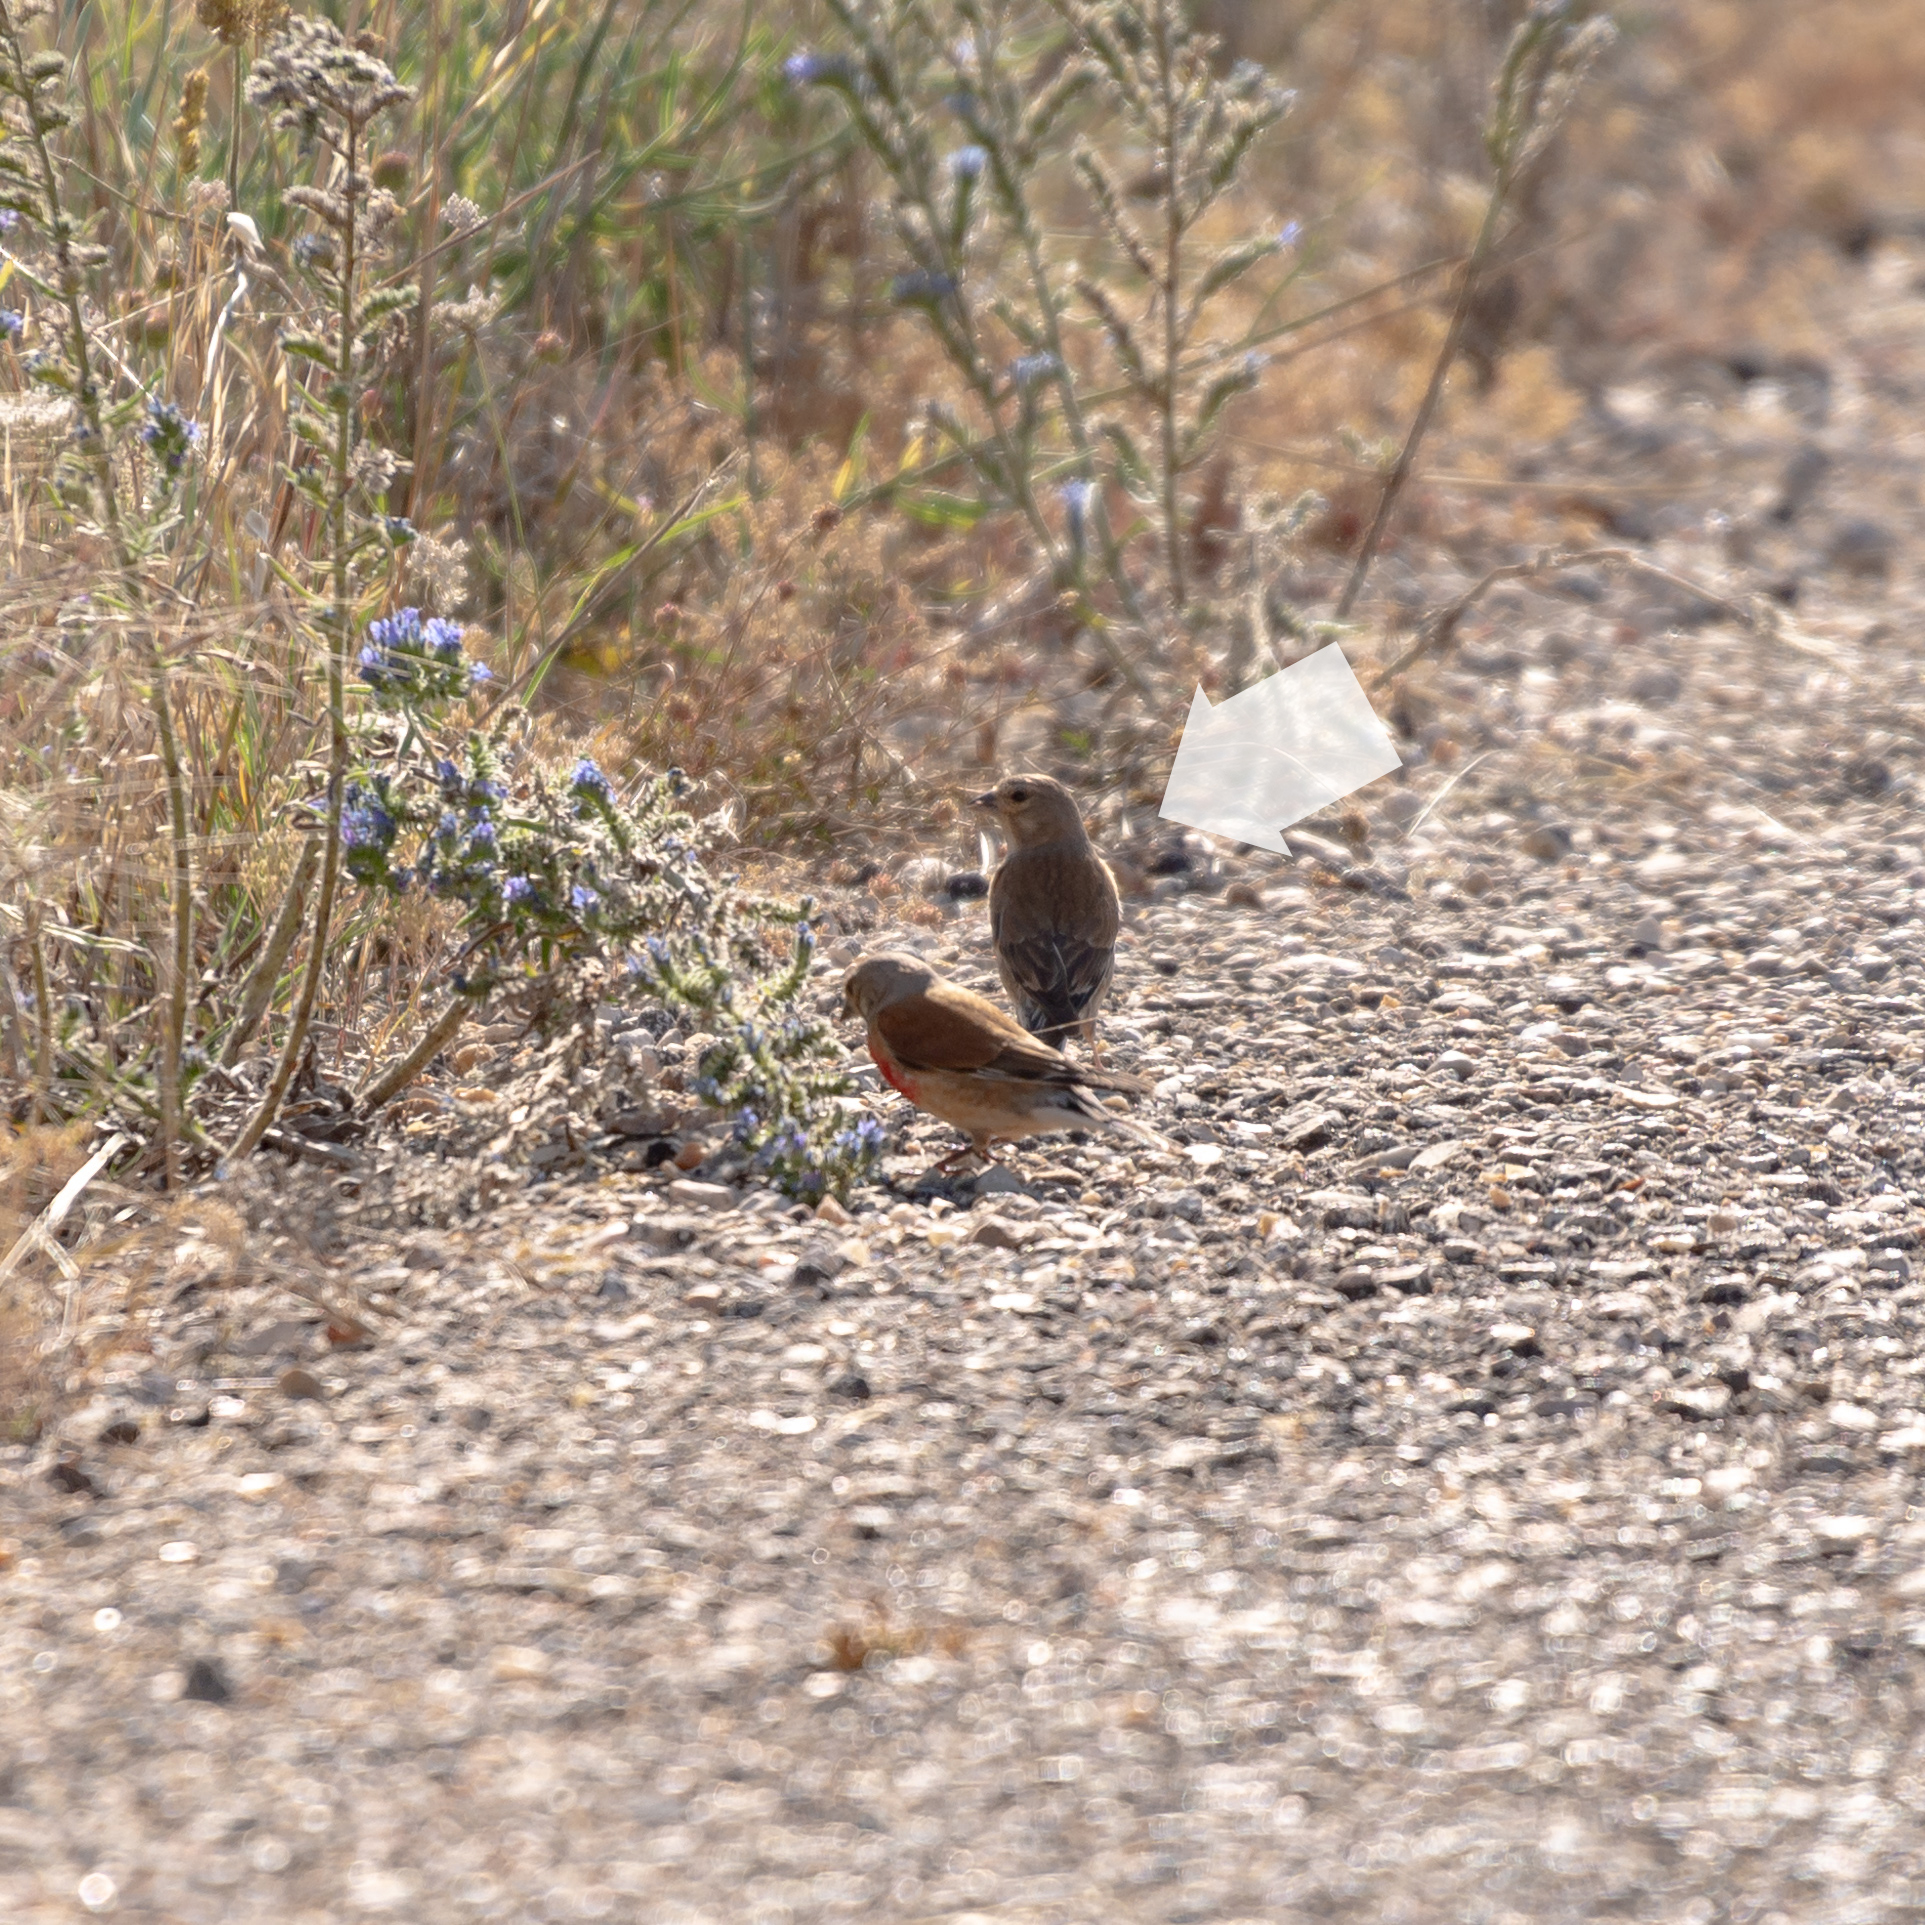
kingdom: Animalia
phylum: Chordata
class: Aves
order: Passeriformes
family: Fringillidae
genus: Linaria
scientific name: Linaria cannabina
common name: Common linnet
